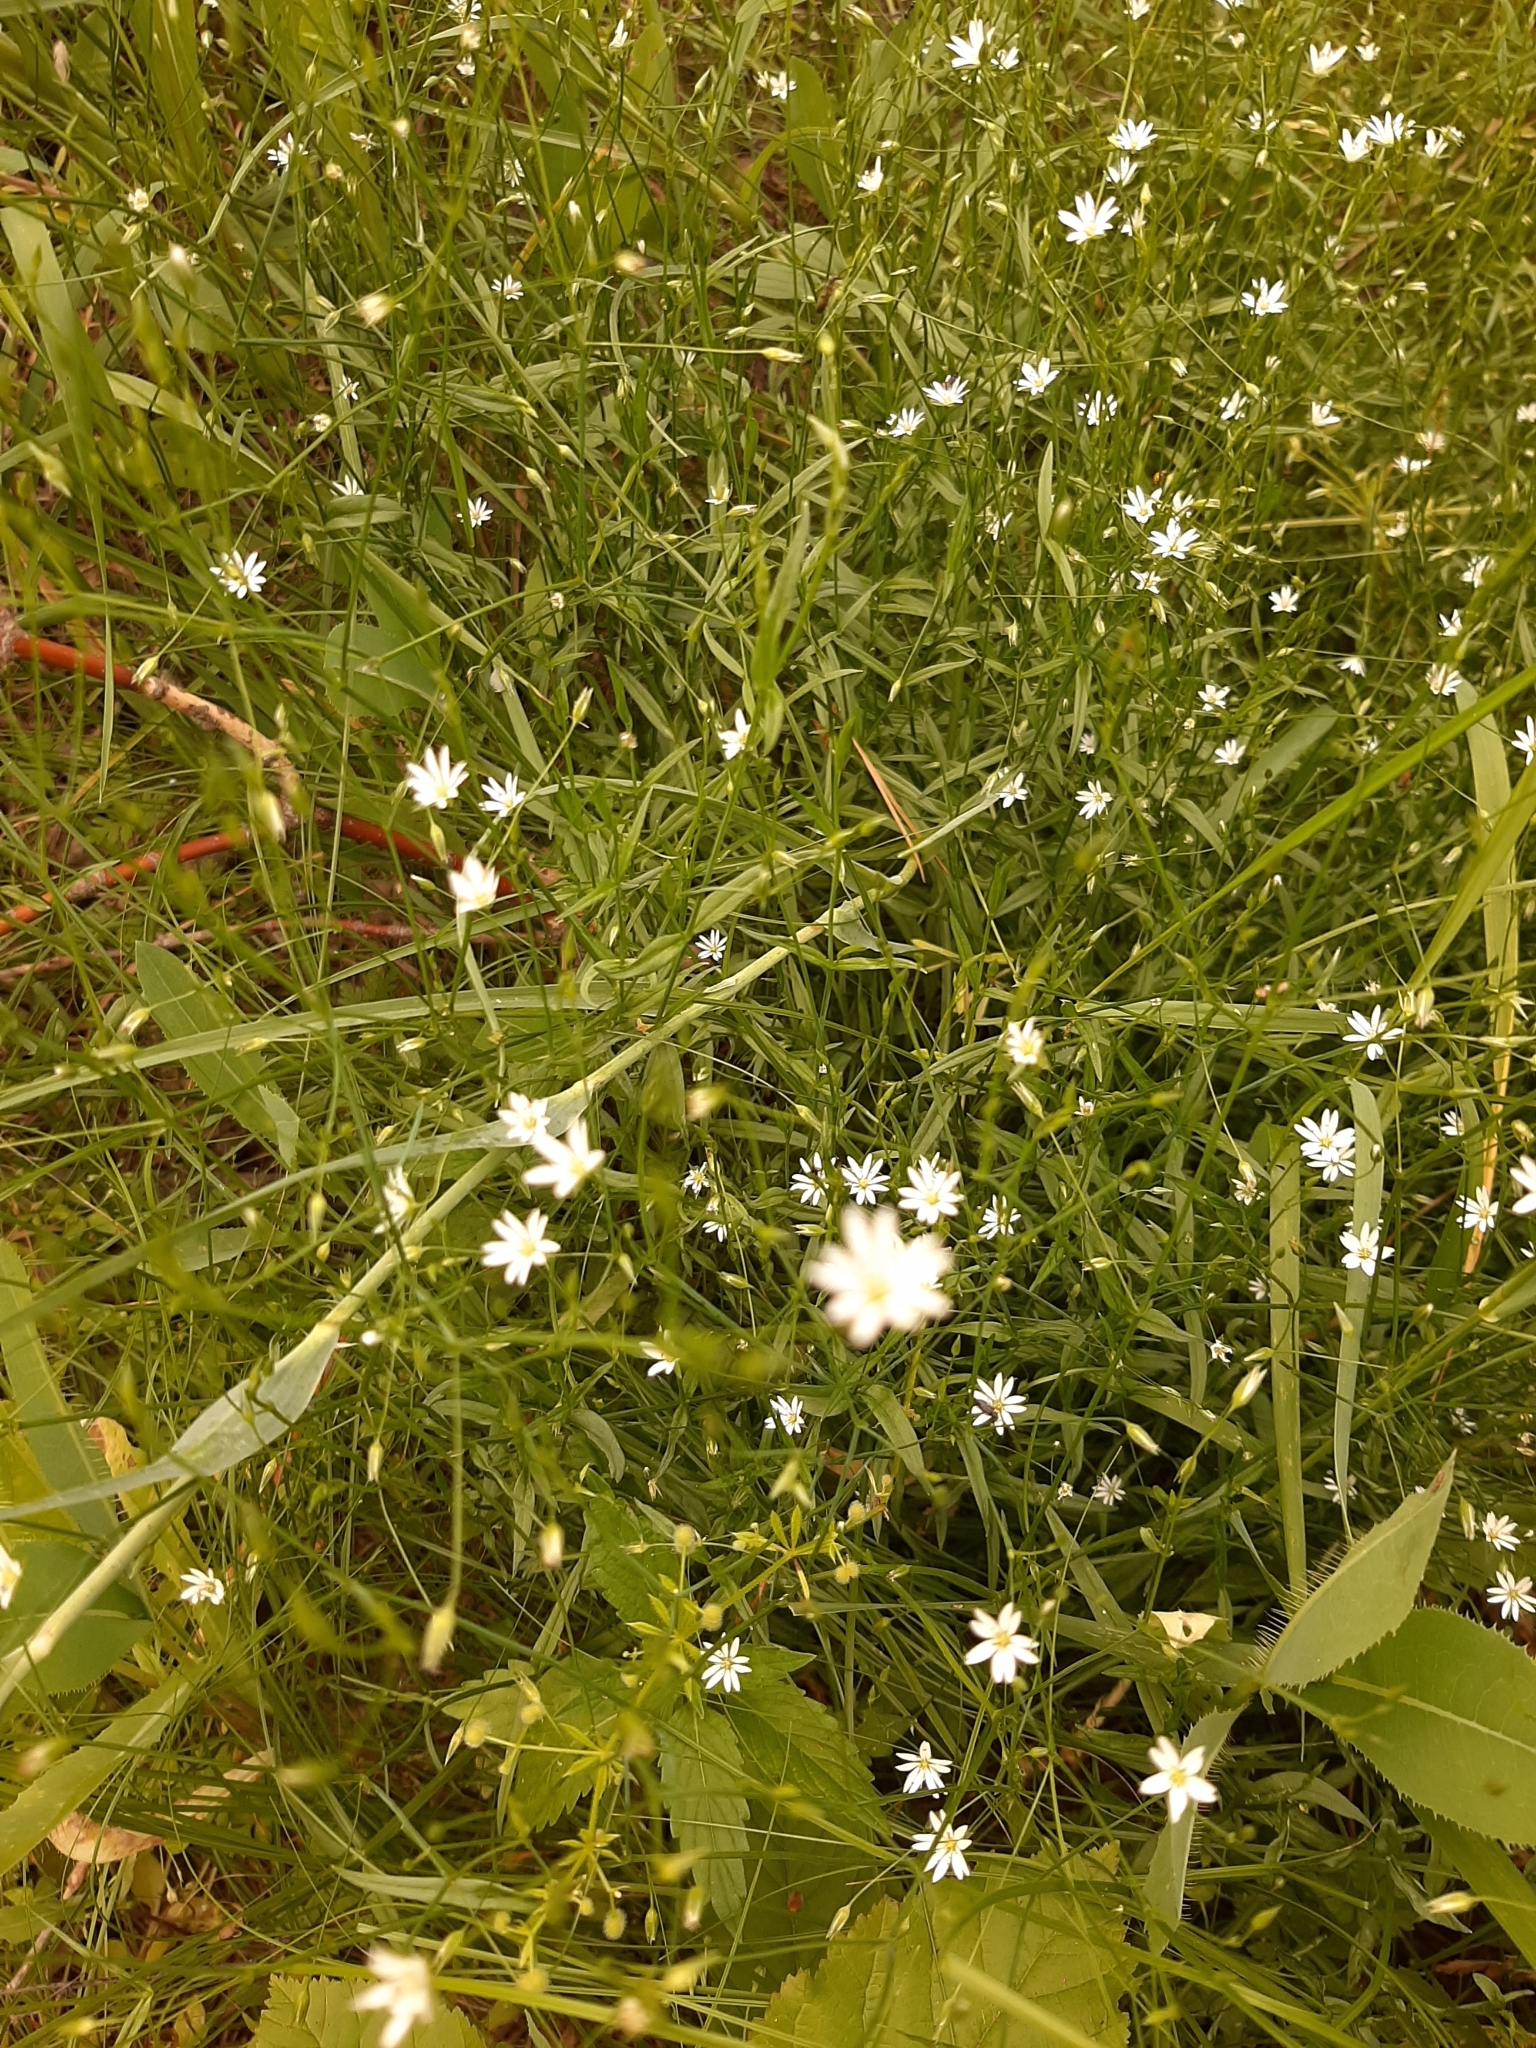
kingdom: Plantae
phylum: Tracheophyta
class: Magnoliopsida
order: Caryophyllales
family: Caryophyllaceae
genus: Stellaria
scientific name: Stellaria graminea
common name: Grass-like starwort
